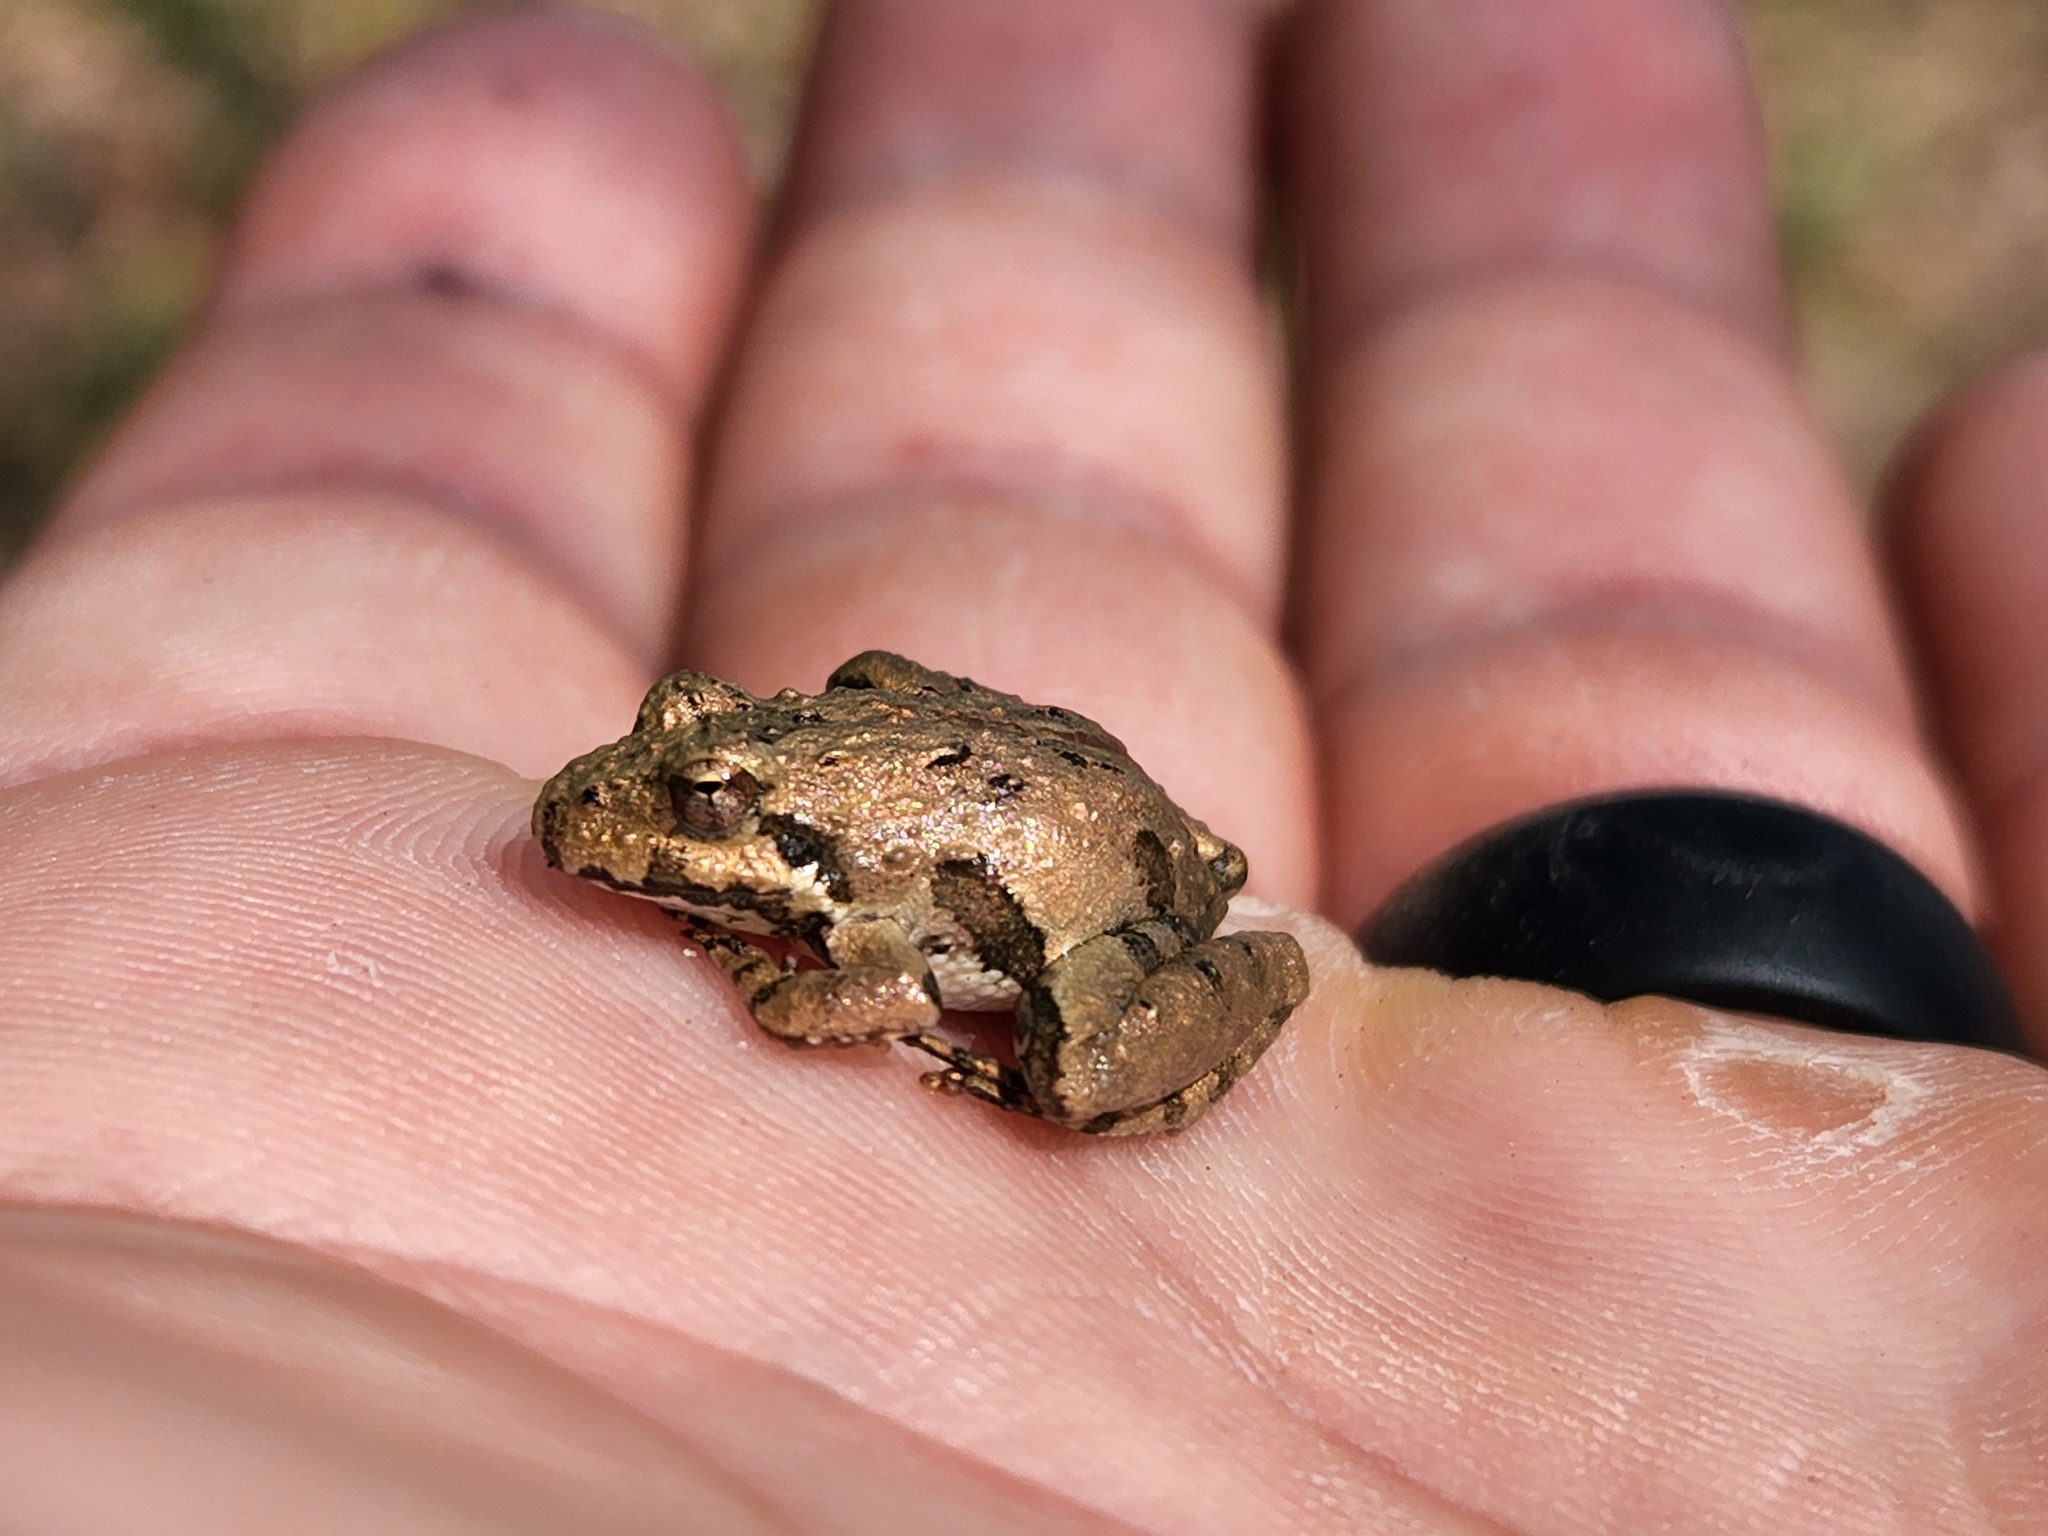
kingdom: Animalia
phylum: Chordata
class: Amphibia
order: Anura
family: Hylidae
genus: Acris
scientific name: Acris crepitans
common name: Northern cricket frog
